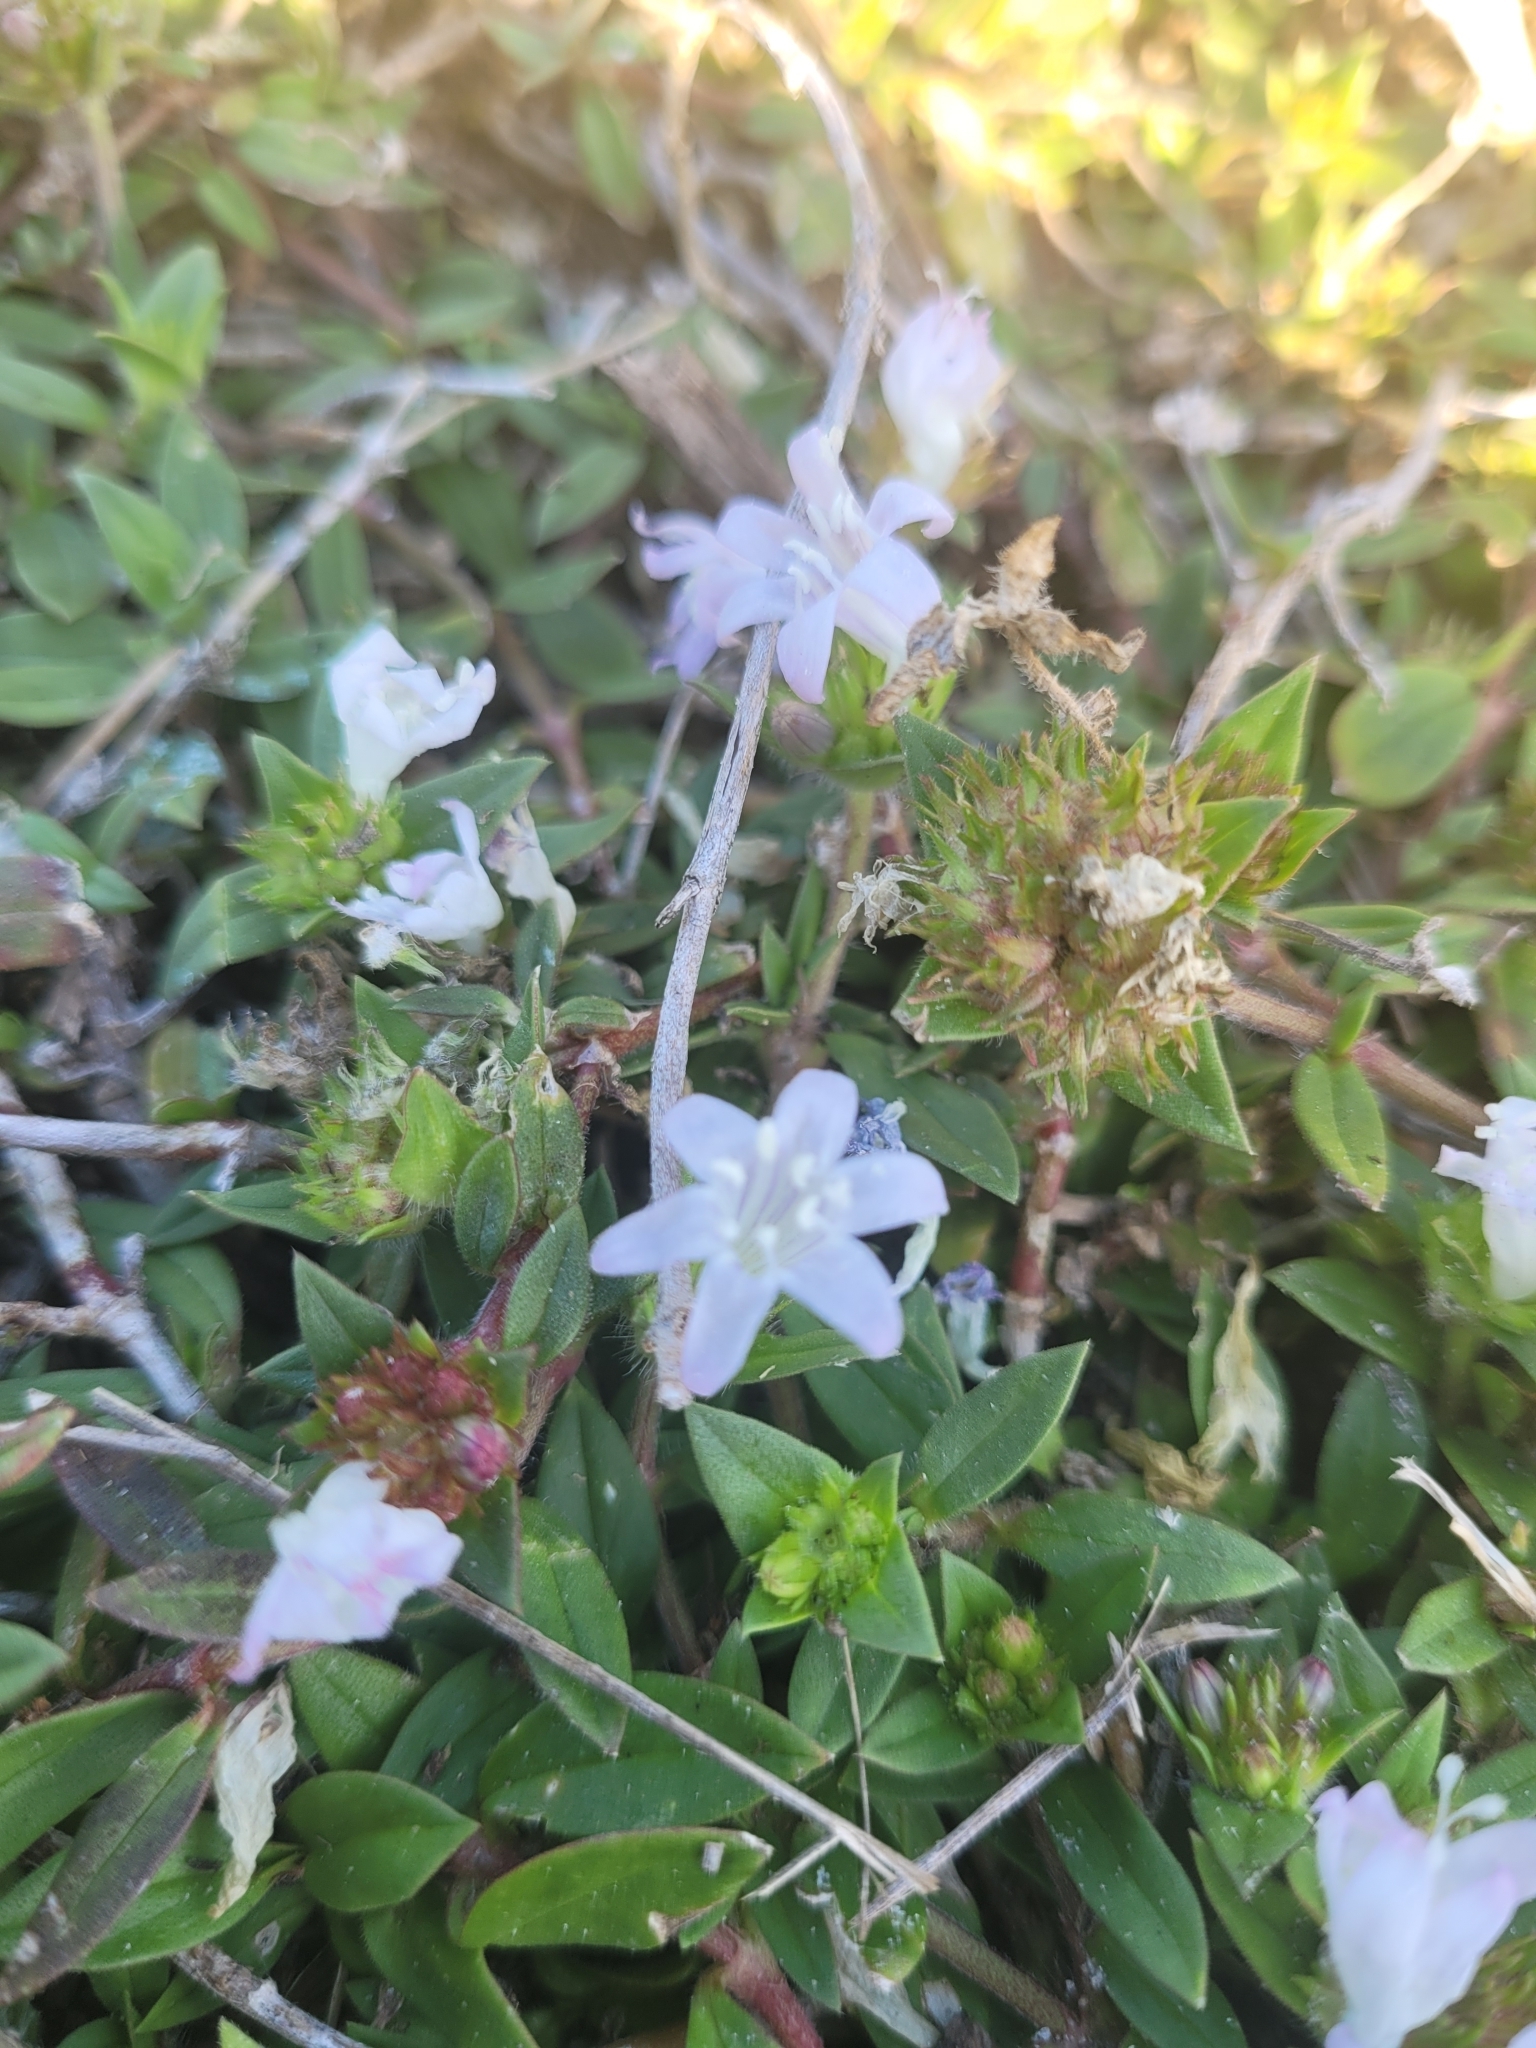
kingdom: Plantae
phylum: Tracheophyta
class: Magnoliopsida
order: Gentianales
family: Rubiaceae
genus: Richardia
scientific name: Richardia grandiflora
